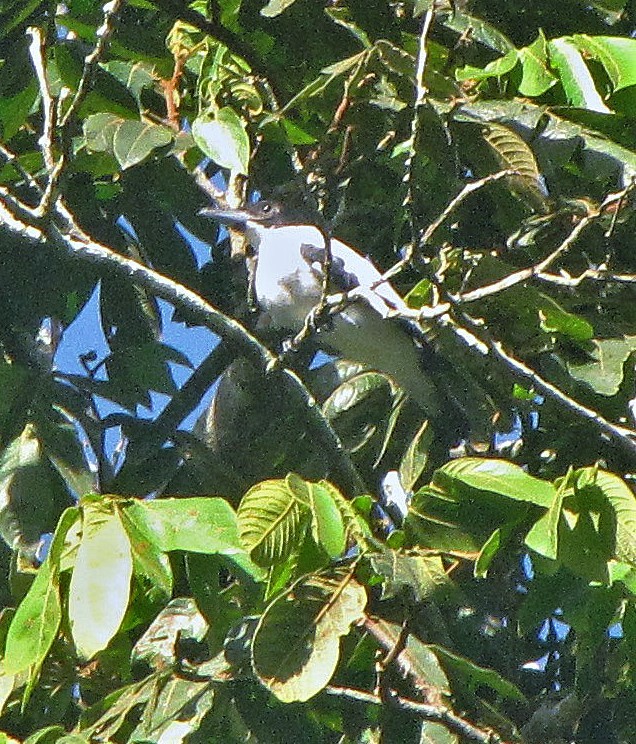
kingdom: Animalia
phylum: Chordata
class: Aves
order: Passeriformes
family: Cotingidae
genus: Tityra
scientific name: Tityra inquisitor
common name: Black-crowned tityra
